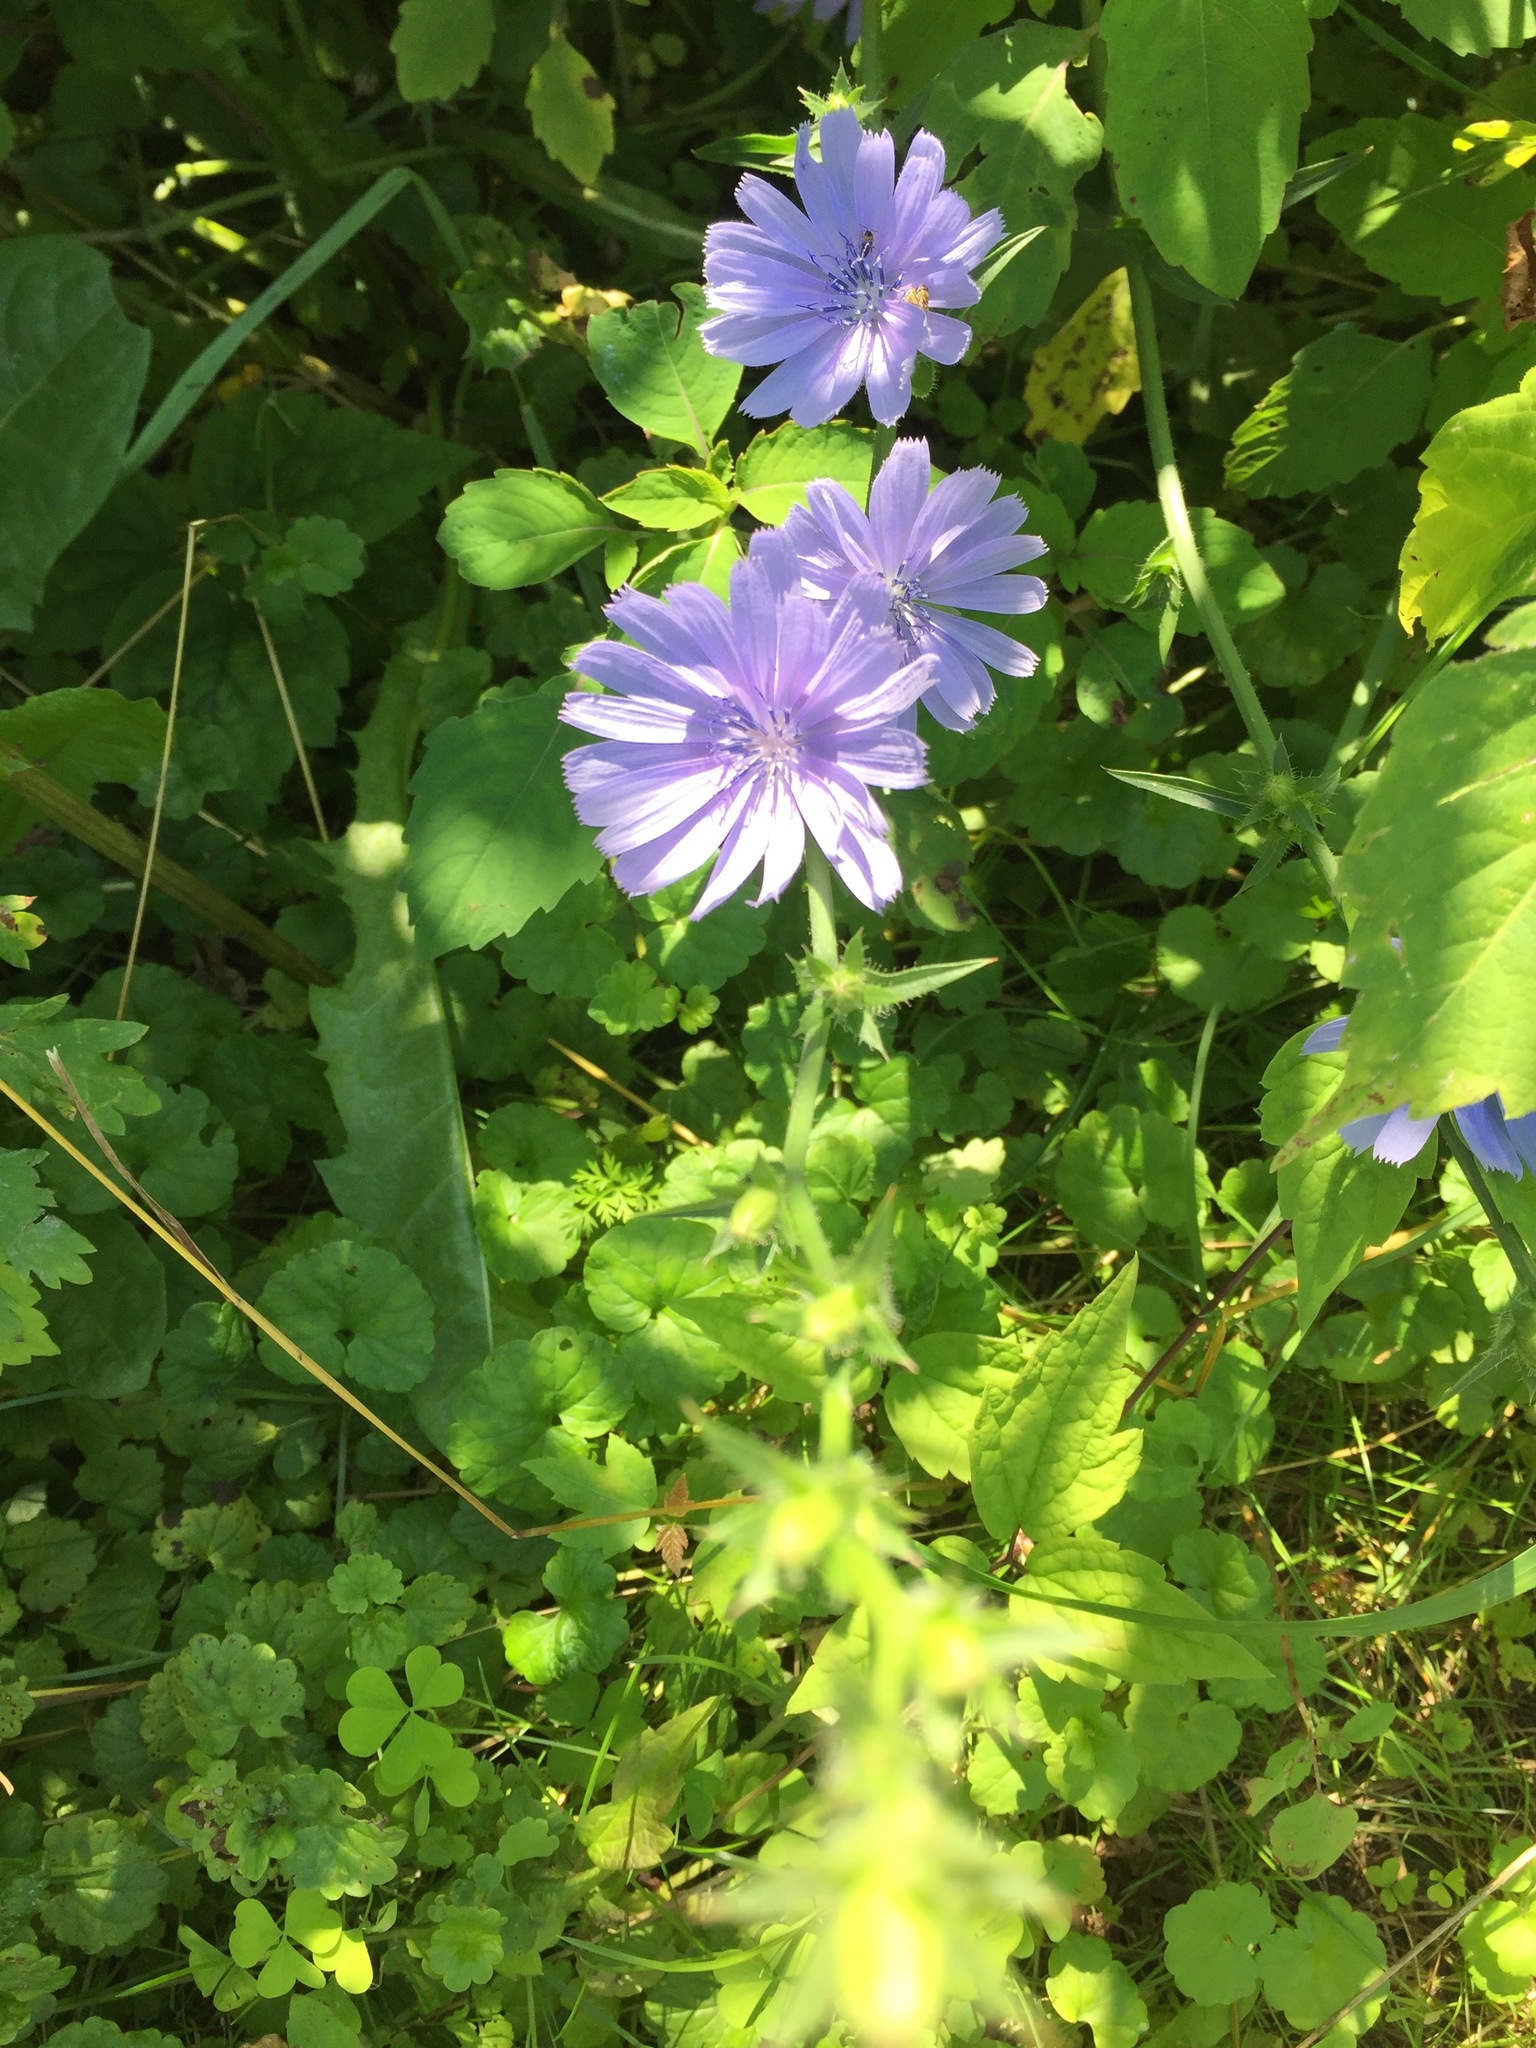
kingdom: Plantae
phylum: Tracheophyta
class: Magnoliopsida
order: Asterales
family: Asteraceae
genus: Cichorium
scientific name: Cichorium intybus
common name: Chicory
